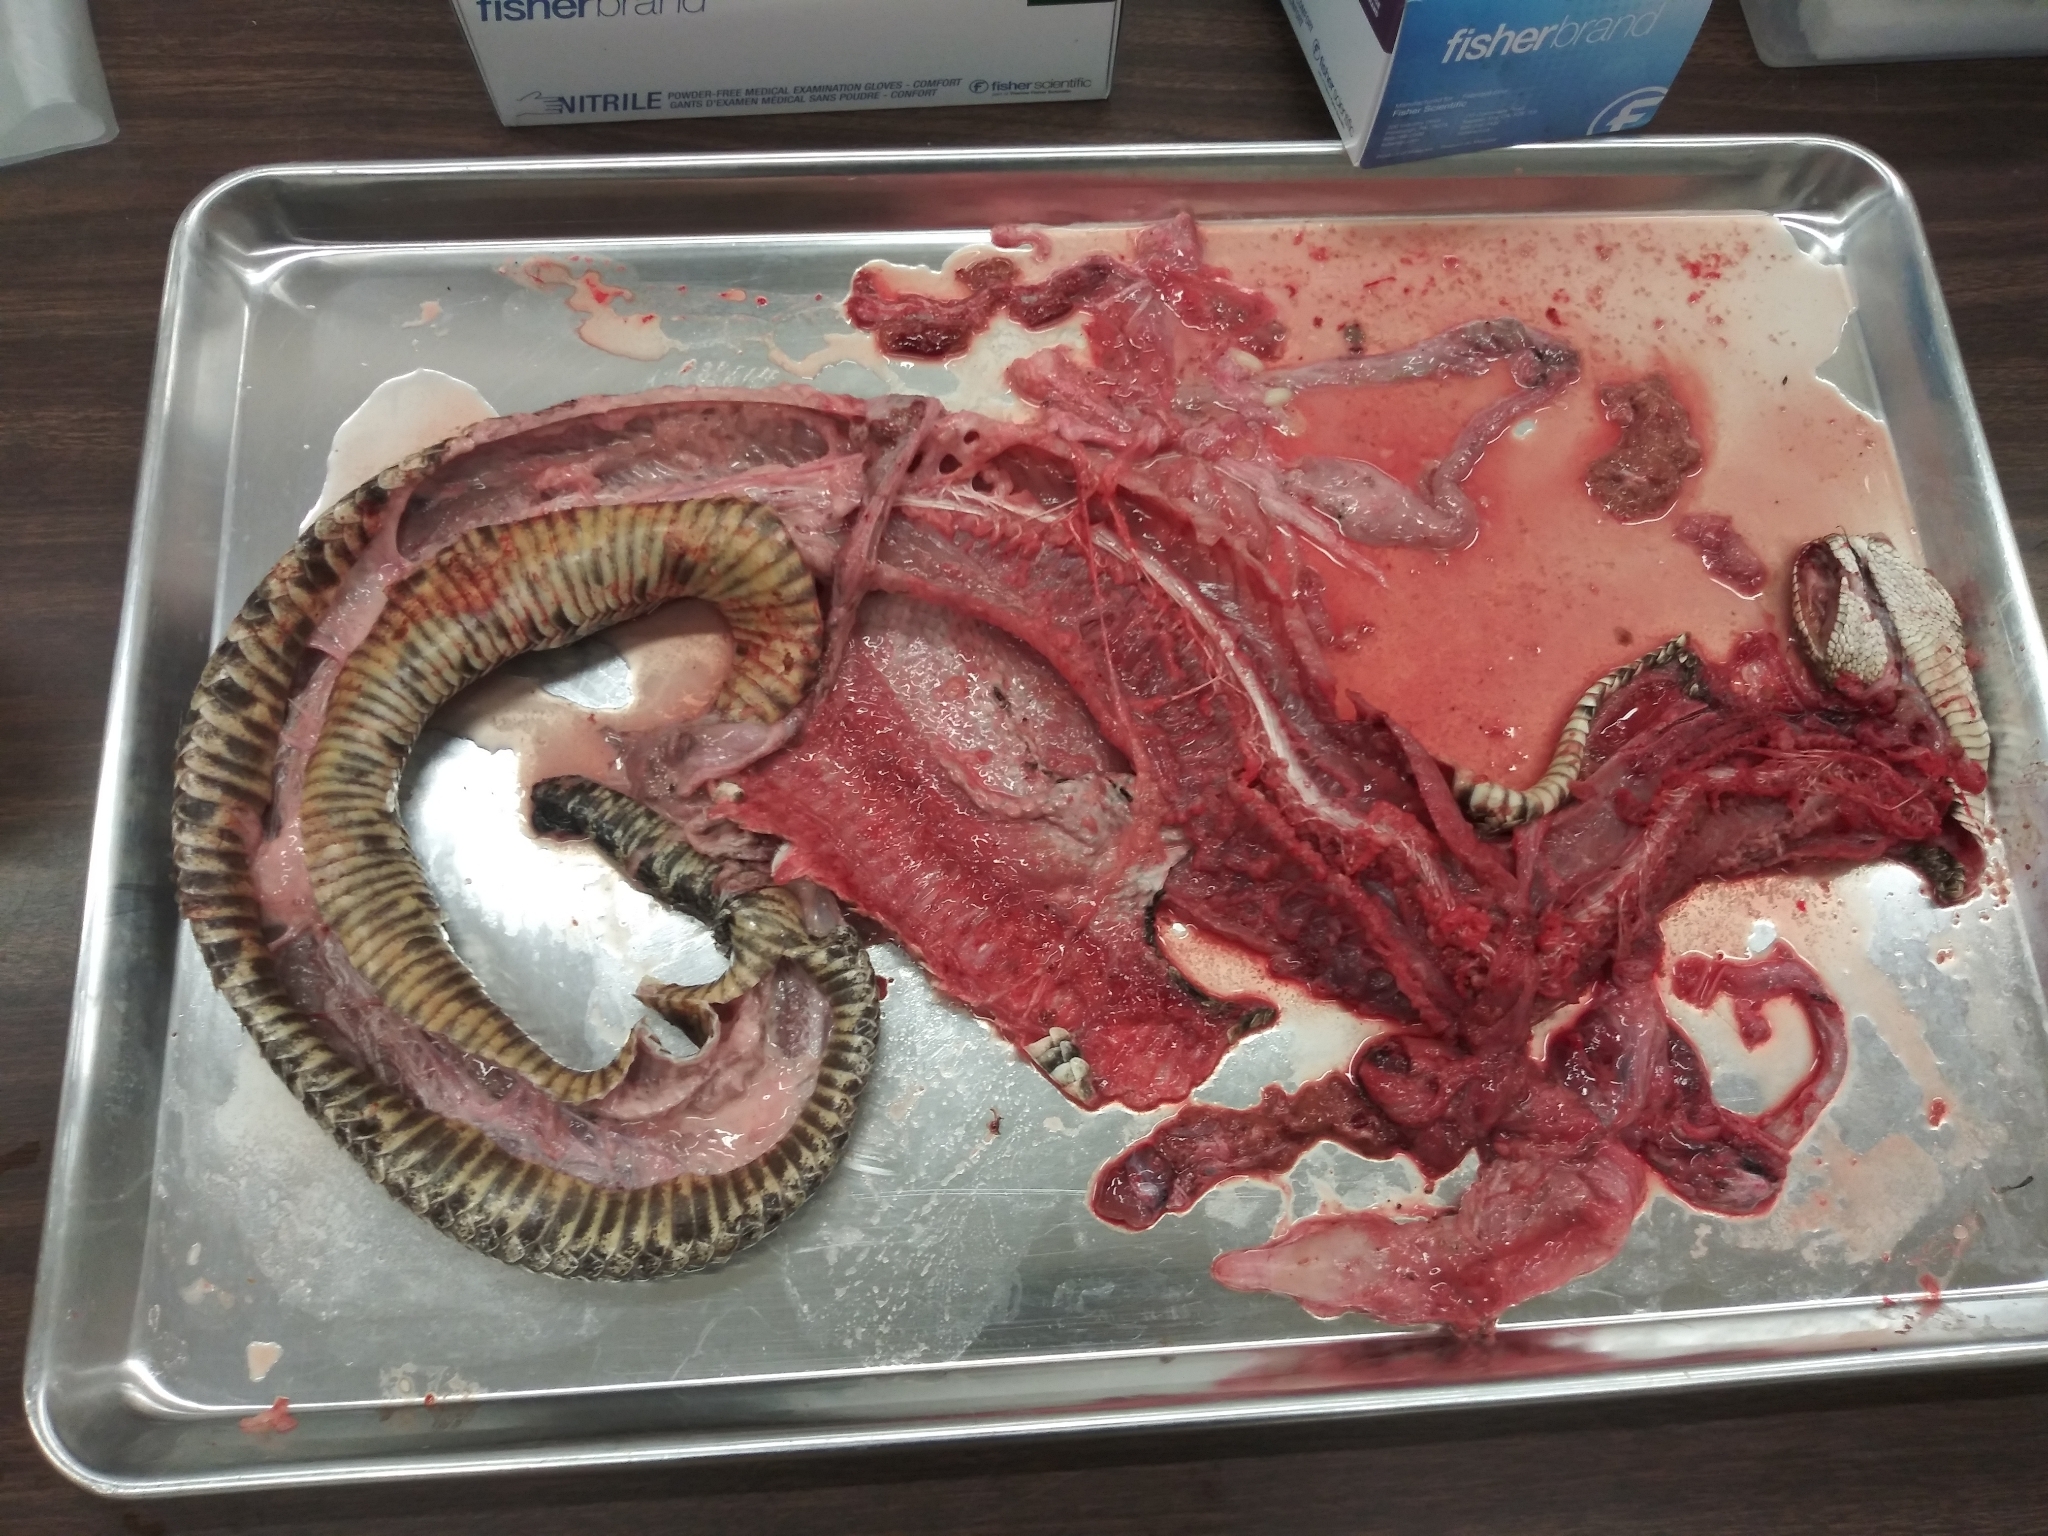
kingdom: Animalia
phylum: Chordata
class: Squamata
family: Viperidae
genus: Crotalus
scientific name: Crotalus adamanteus
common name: Eastern diamondback rattlesnake
